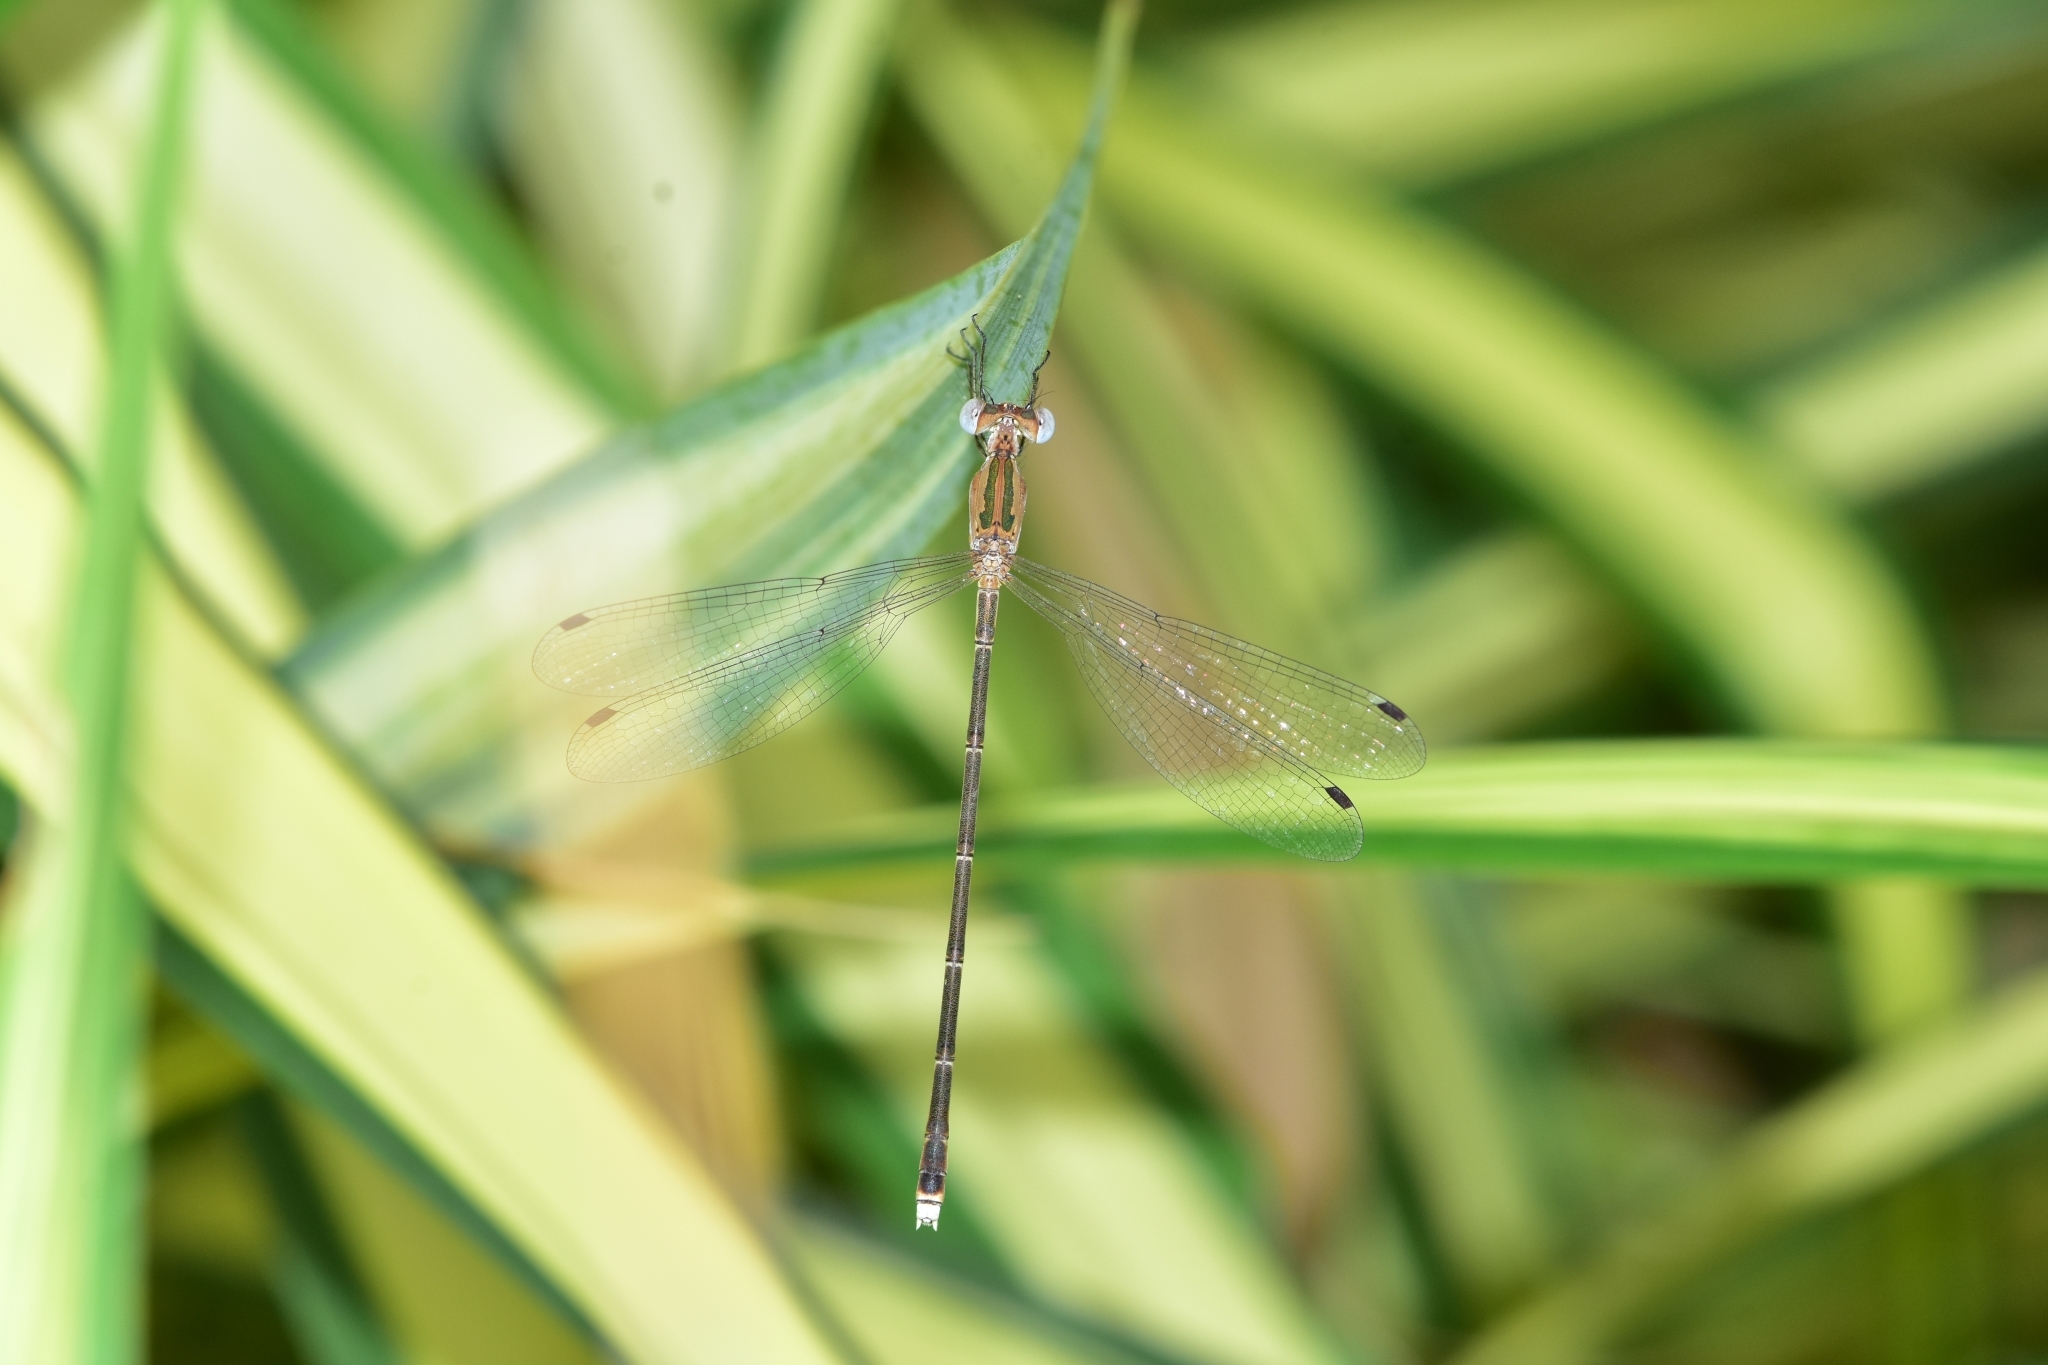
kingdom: Animalia
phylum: Arthropoda
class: Insecta
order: Odonata
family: Lestidae
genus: Lestes
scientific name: Lestes elatus
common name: Emerald spreadwing
